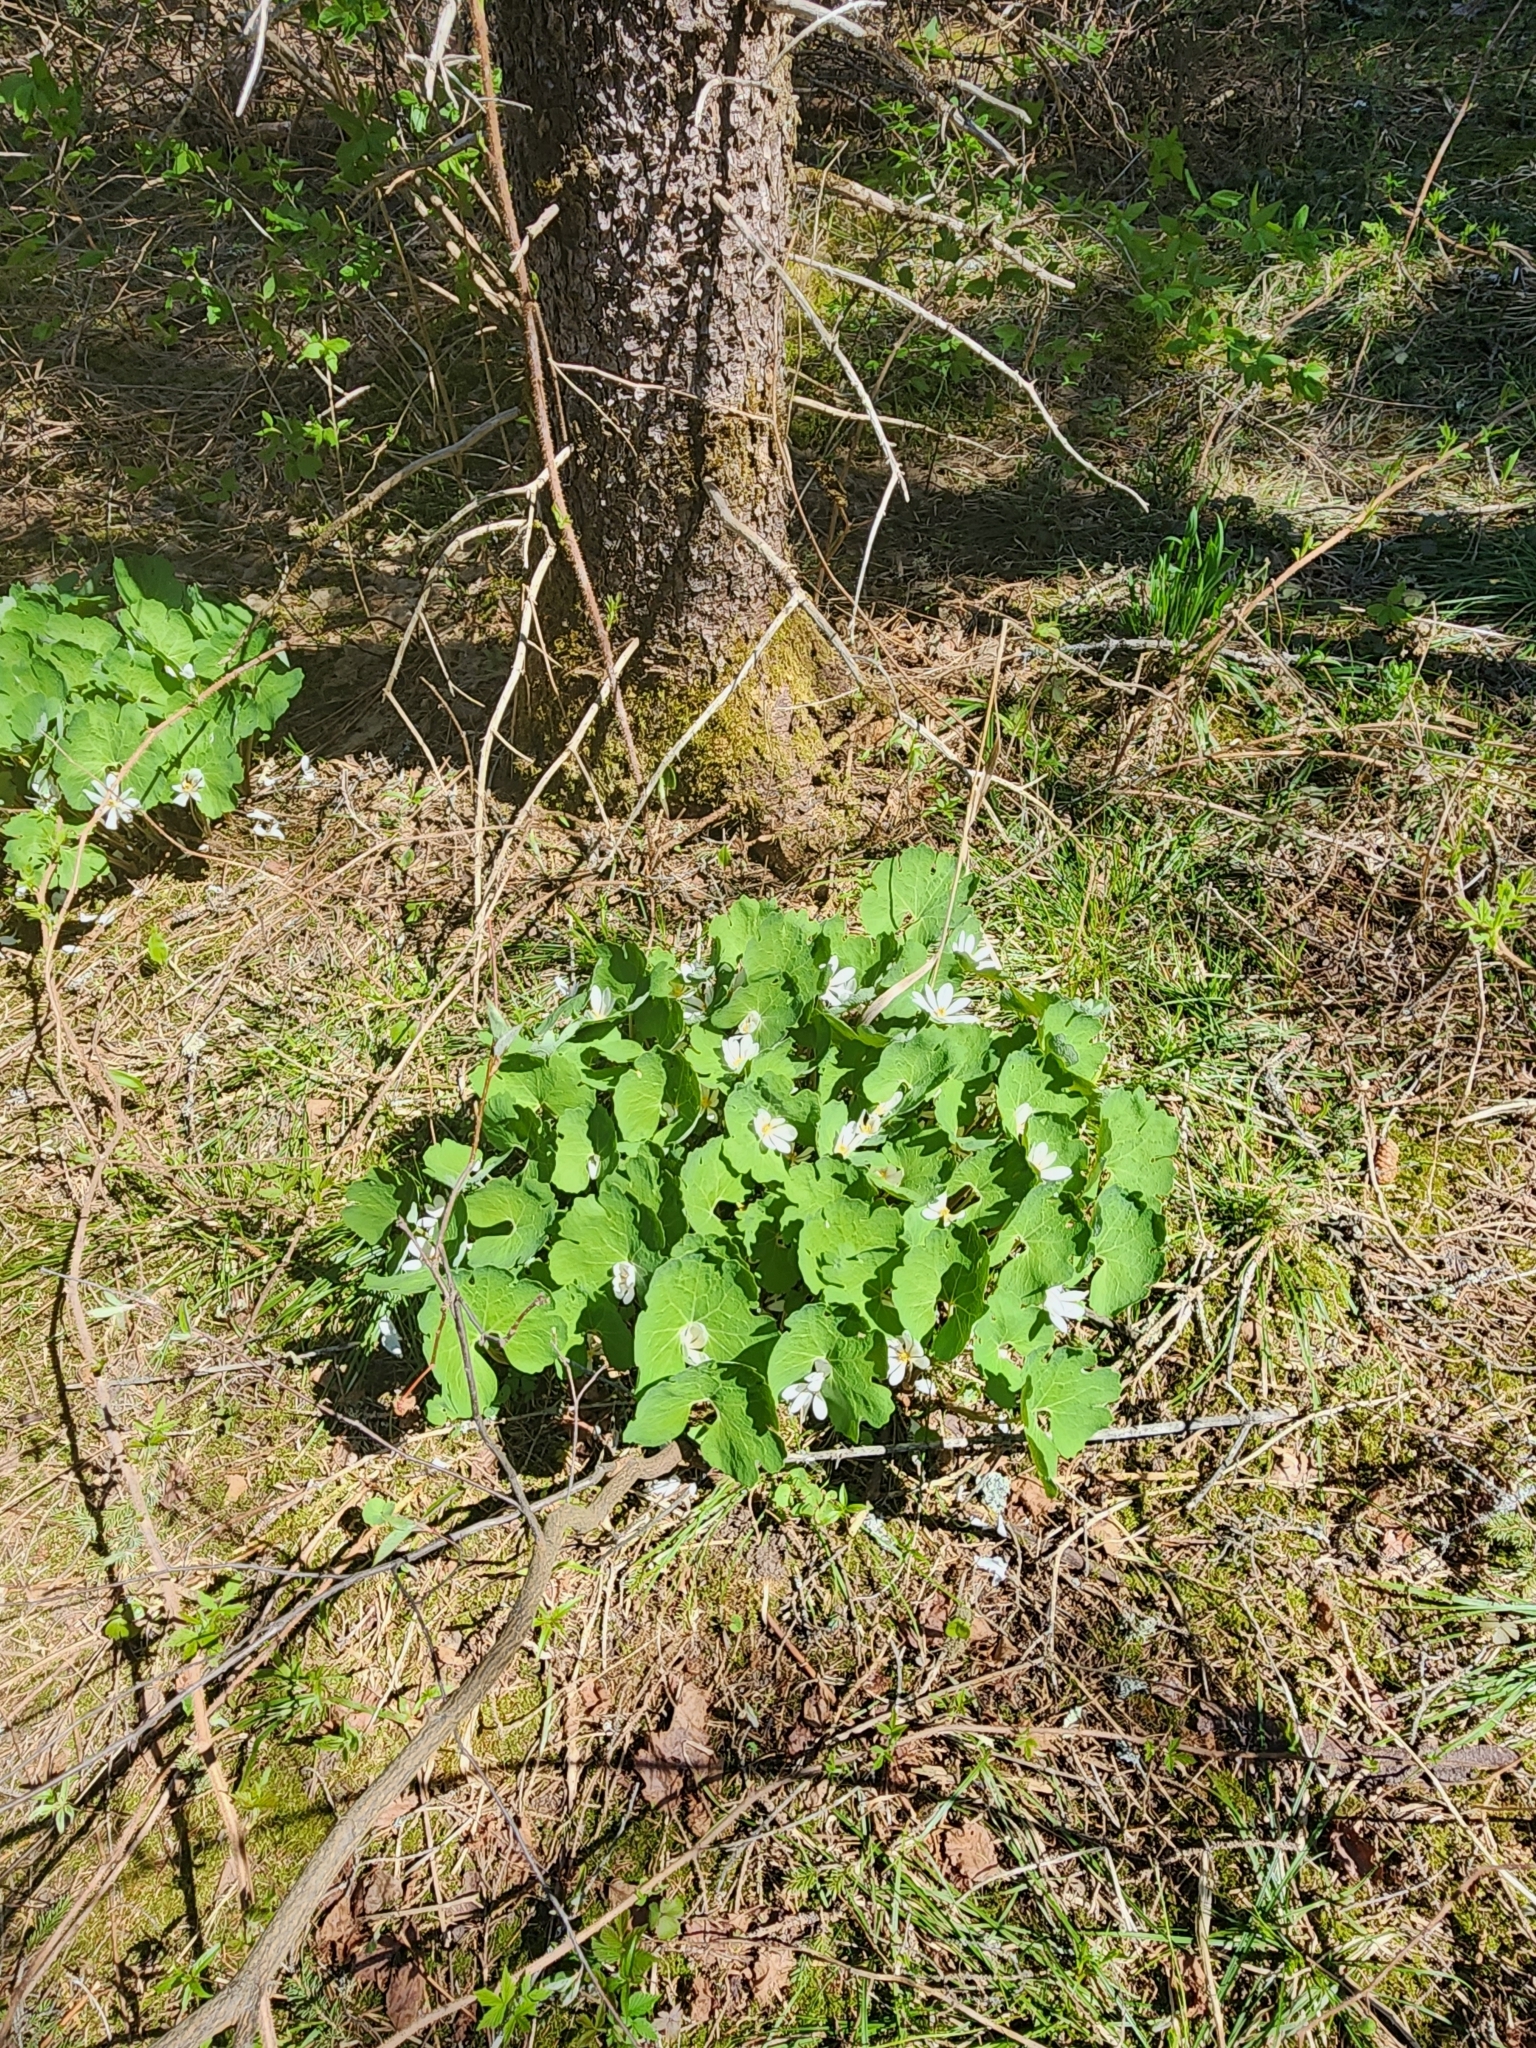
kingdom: Plantae
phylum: Tracheophyta
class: Magnoliopsida
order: Ranunculales
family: Papaveraceae
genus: Sanguinaria
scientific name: Sanguinaria canadensis
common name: Bloodroot
